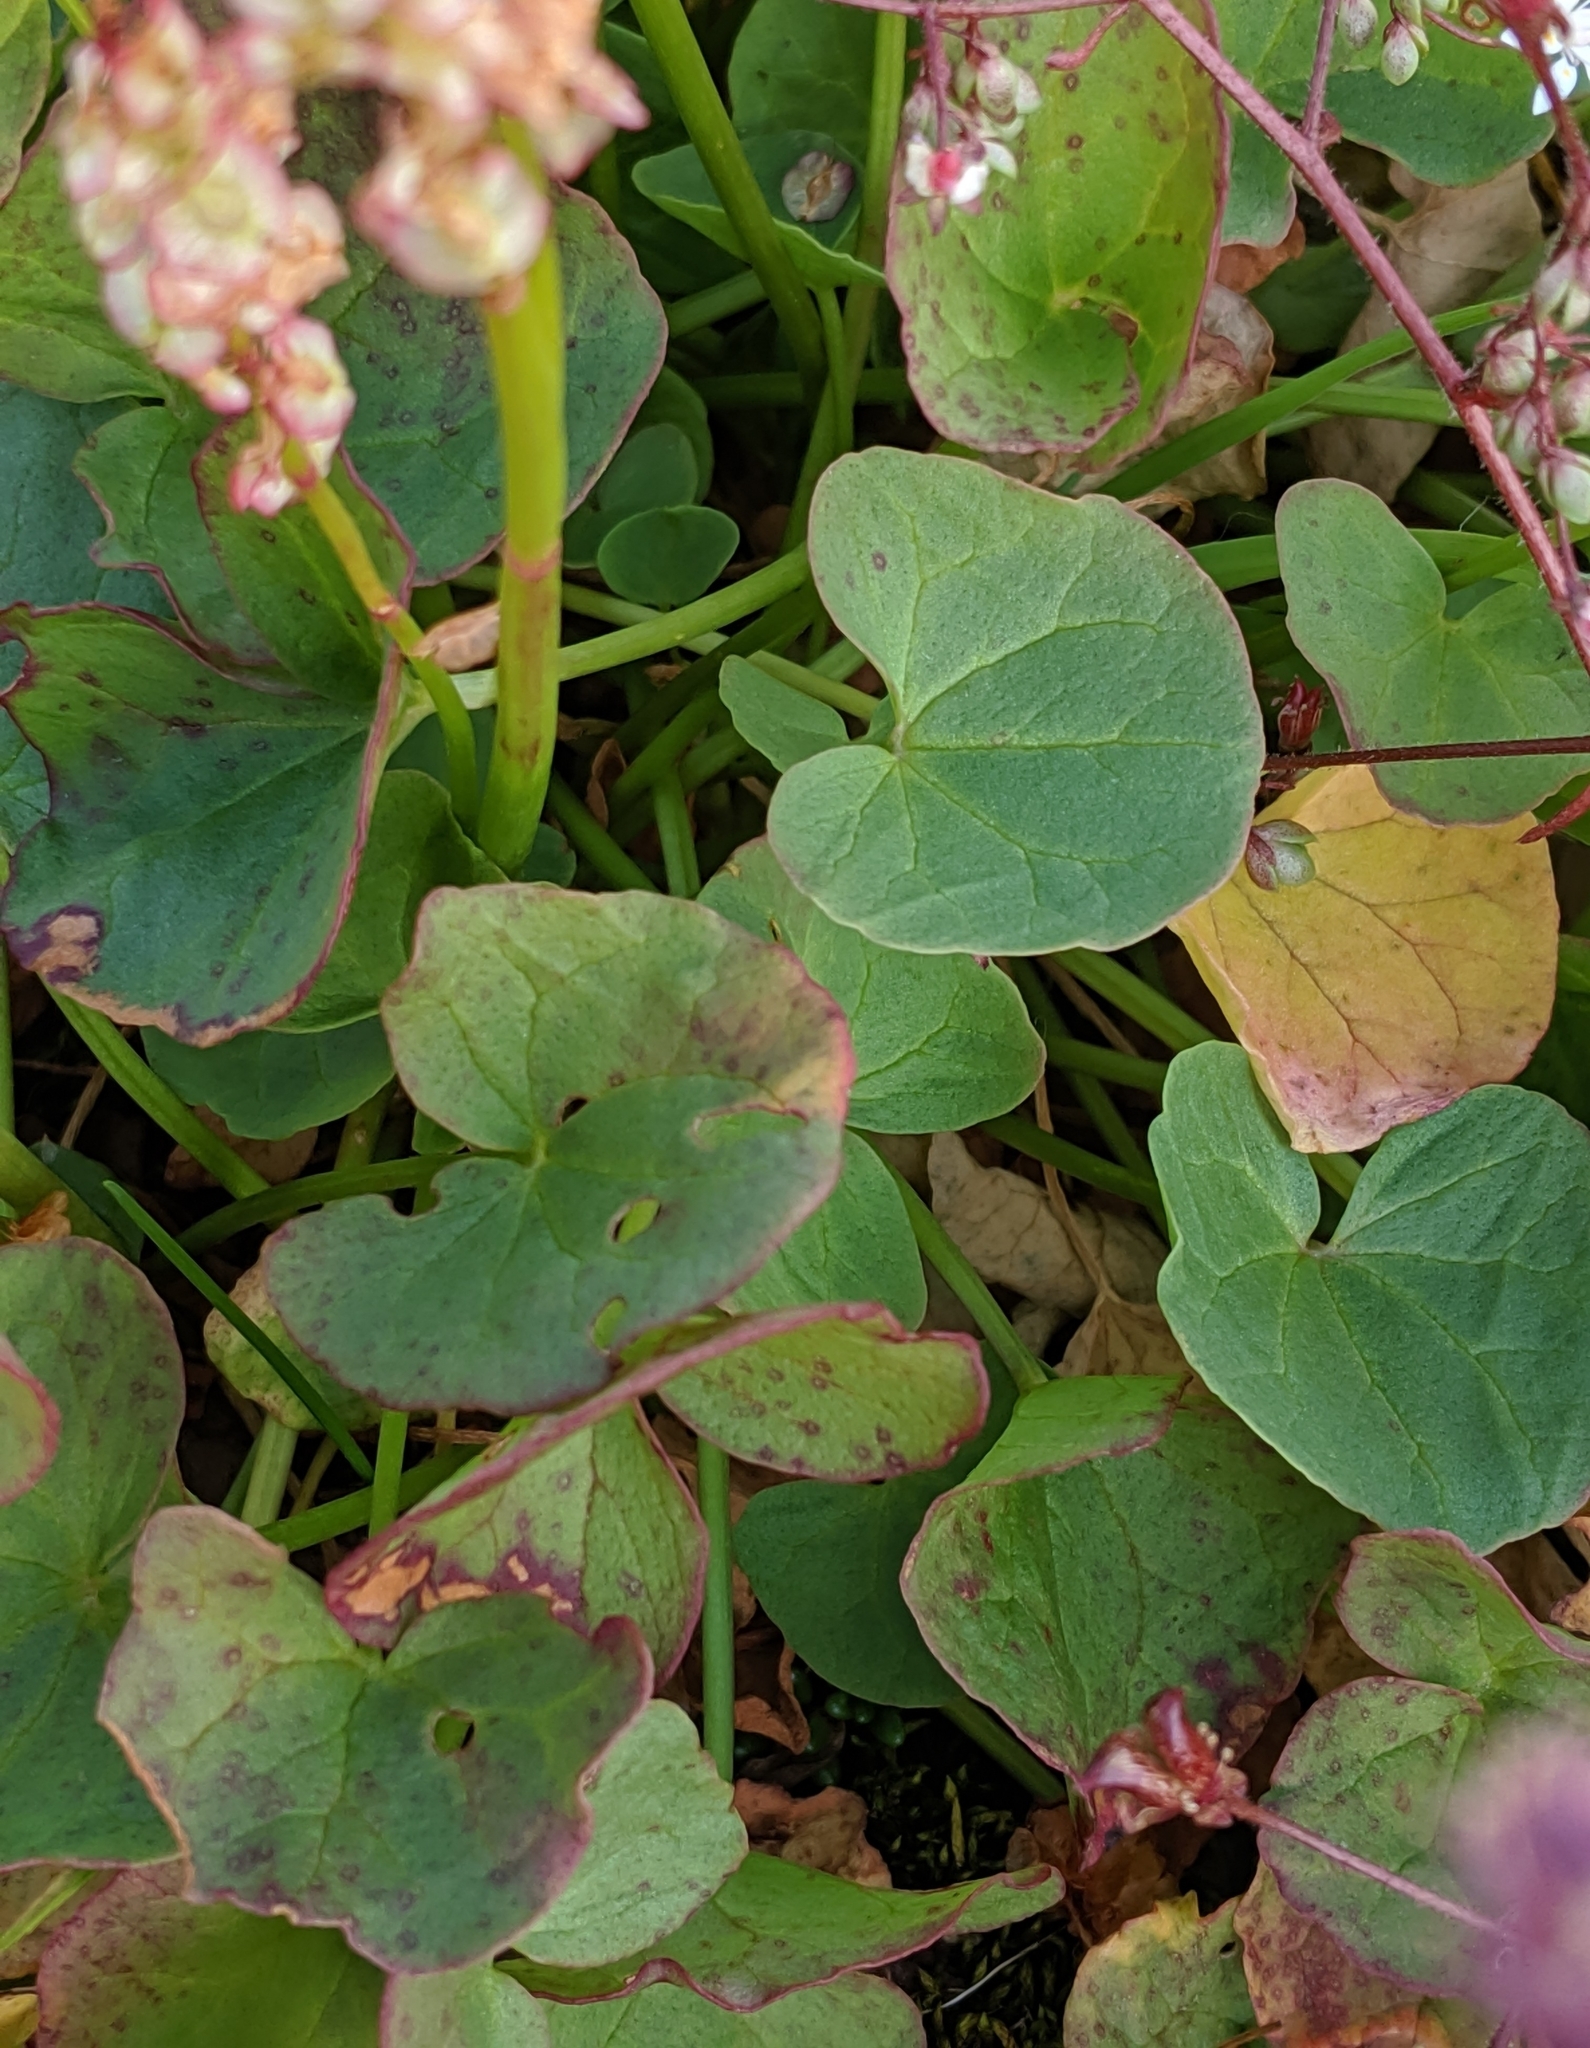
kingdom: Plantae
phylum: Tracheophyta
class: Magnoliopsida
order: Caryophyllales
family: Polygonaceae
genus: Oxyria
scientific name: Oxyria digyna
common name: Alpine mountain-sorrel
